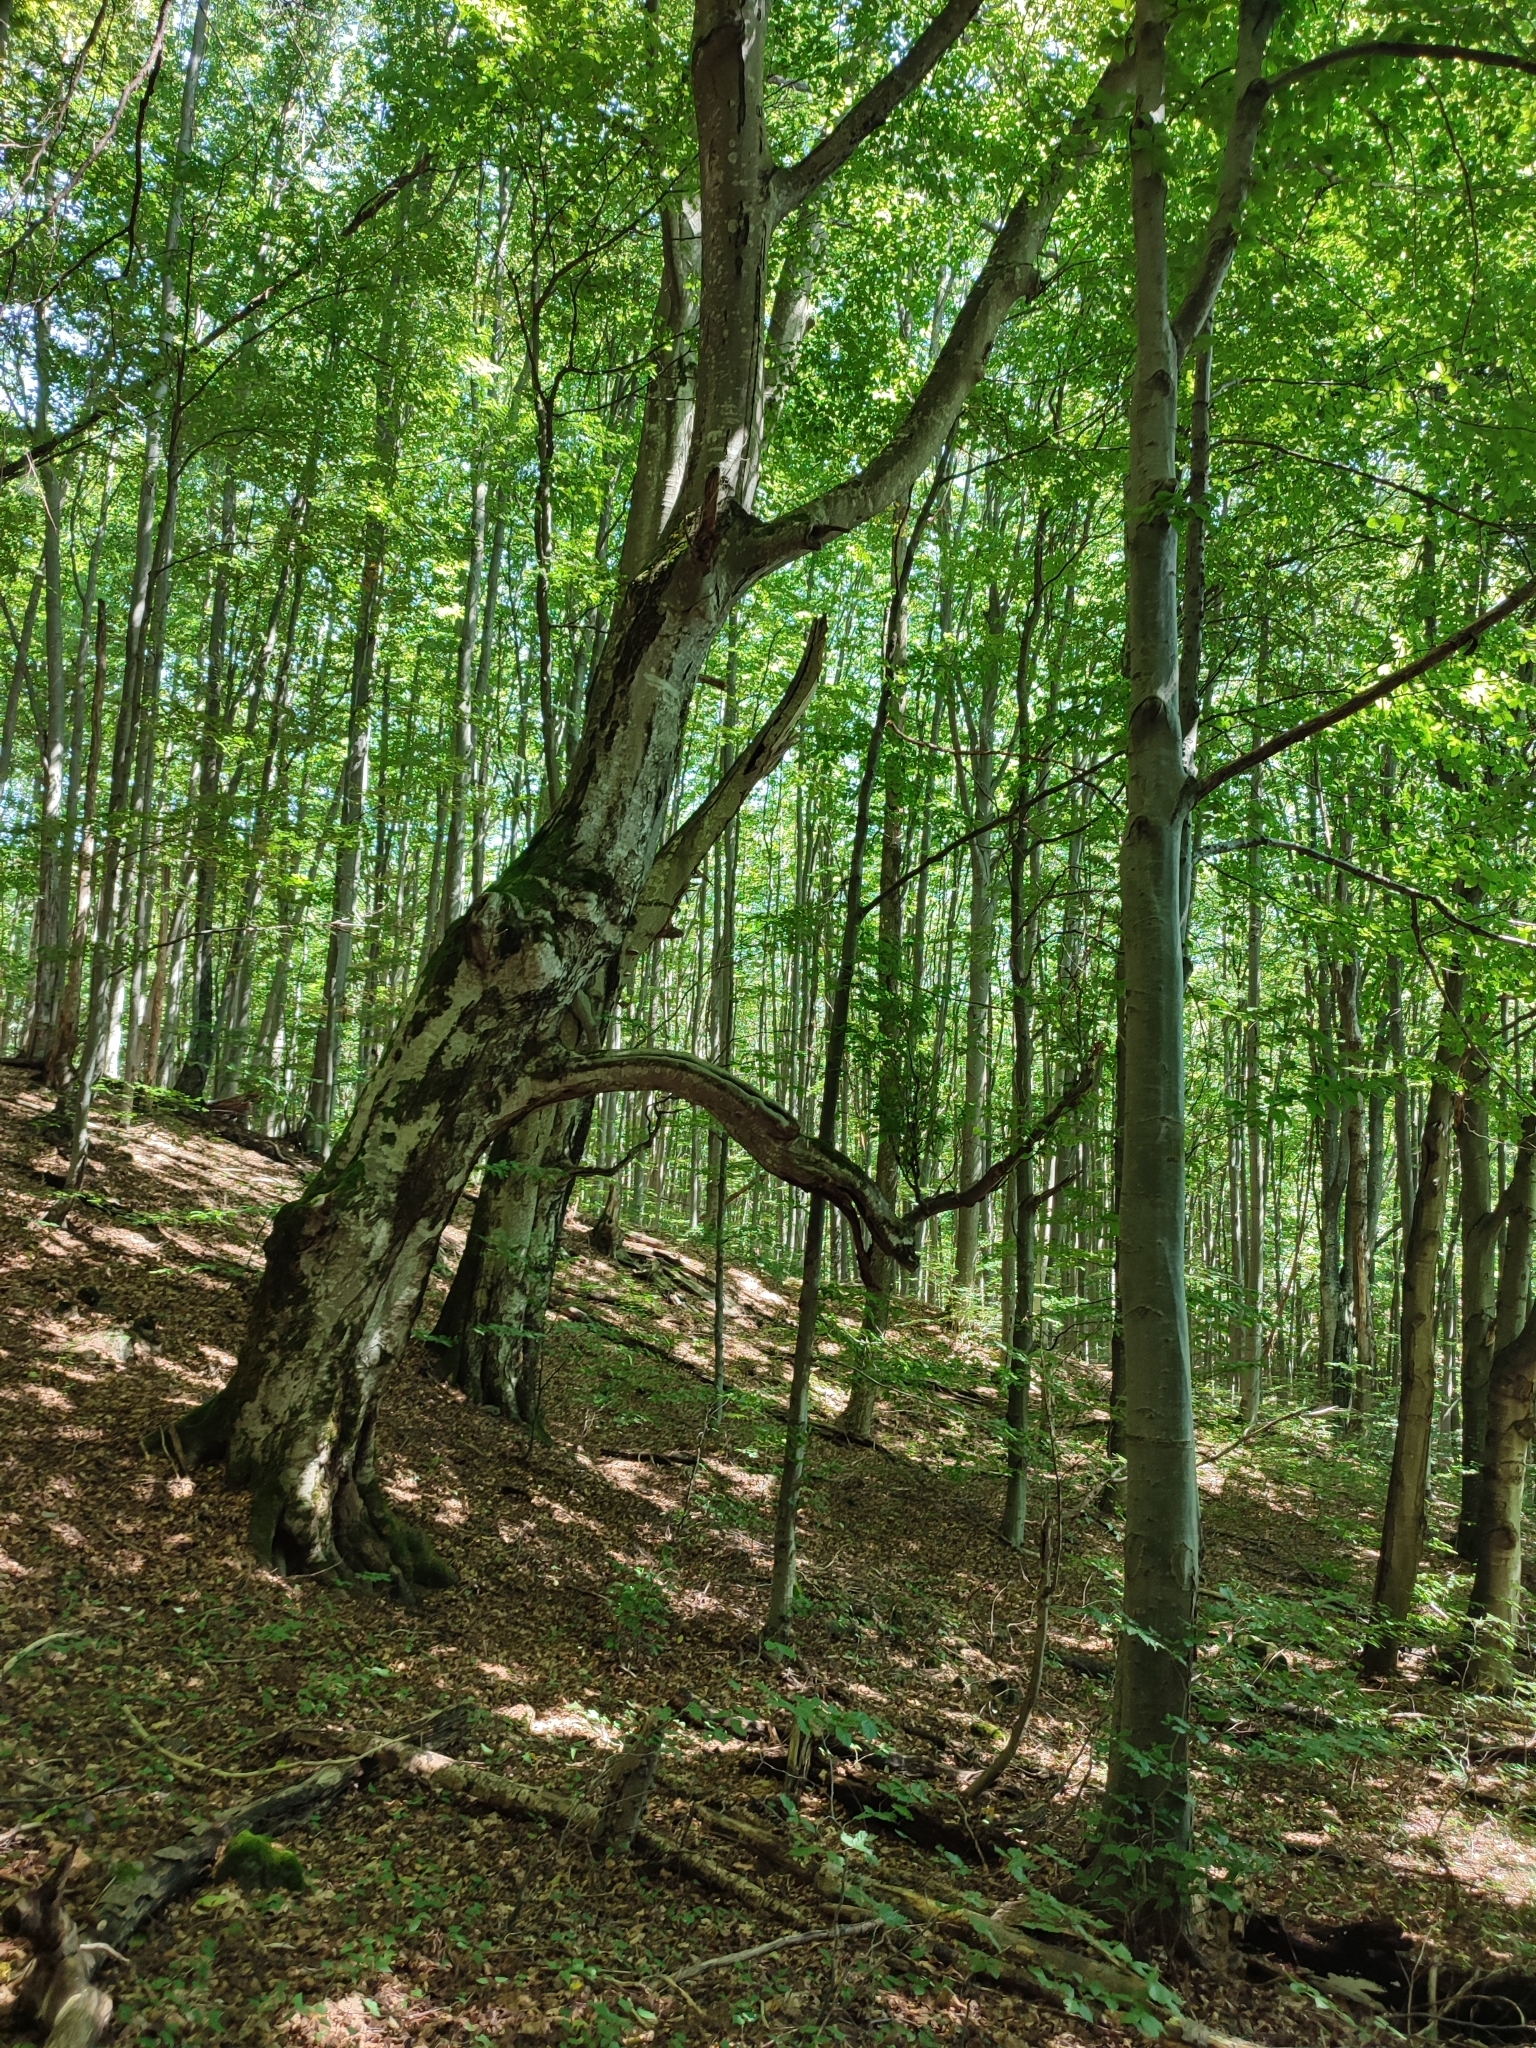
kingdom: Plantae
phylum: Tracheophyta
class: Magnoliopsida
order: Fagales
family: Fagaceae
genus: Fagus
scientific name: Fagus sylvatica
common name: Beech
